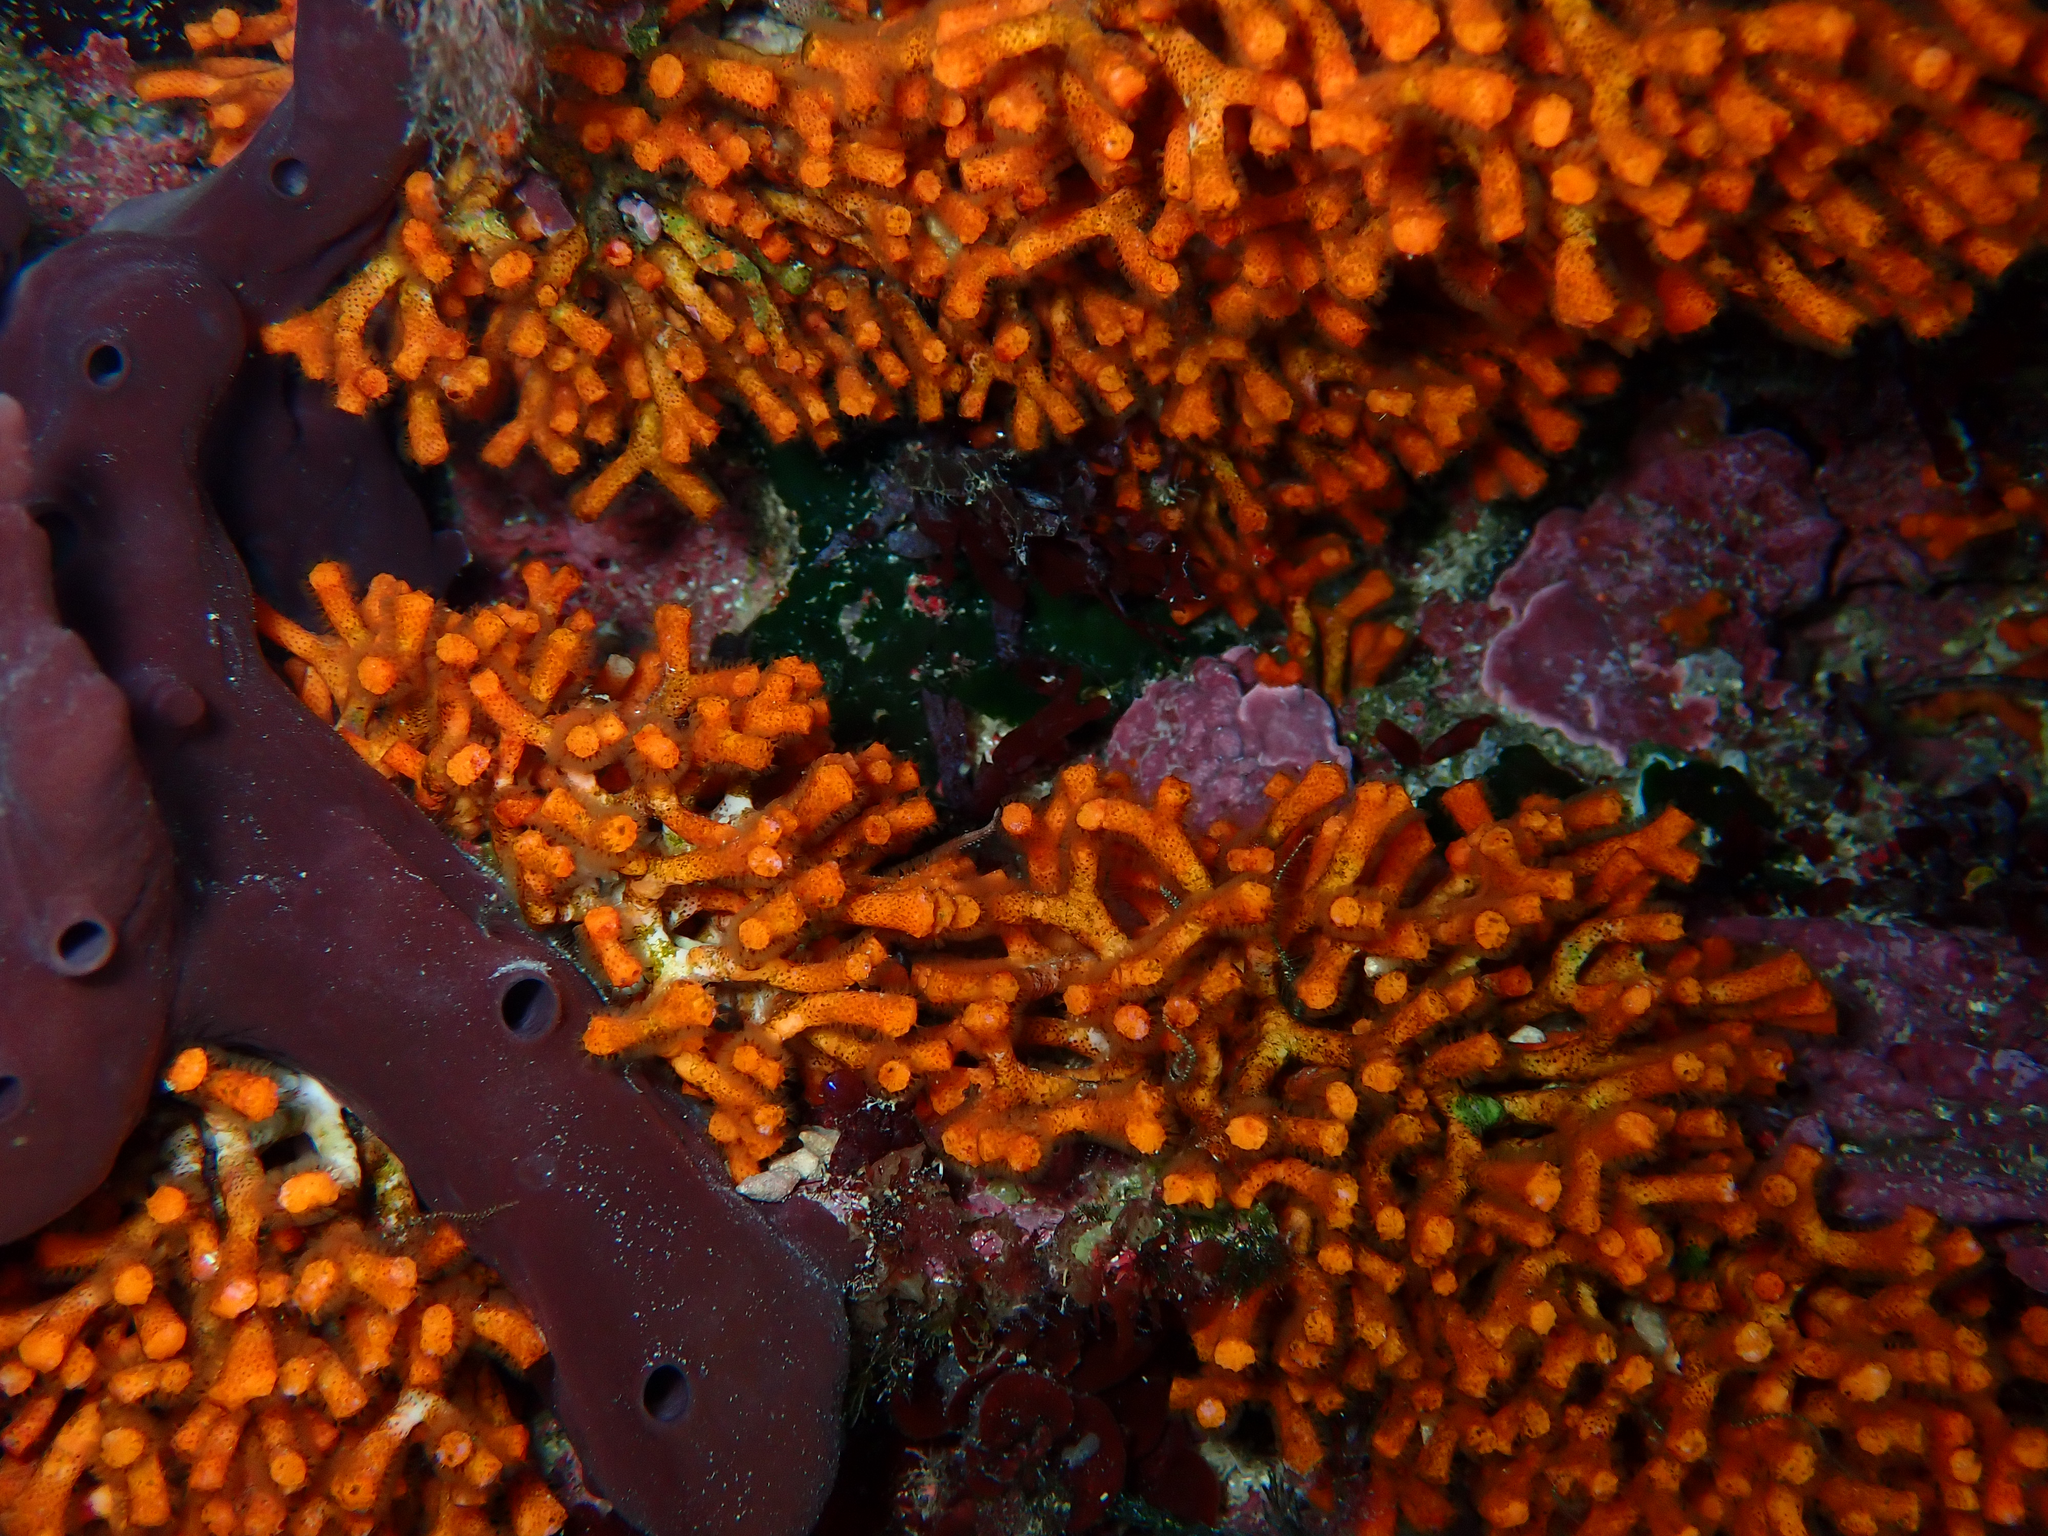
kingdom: Animalia
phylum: Bryozoa
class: Gymnolaemata
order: Cheilostomatida
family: Myriaporidae
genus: Myriapora
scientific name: Myriapora truncata
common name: False coral
